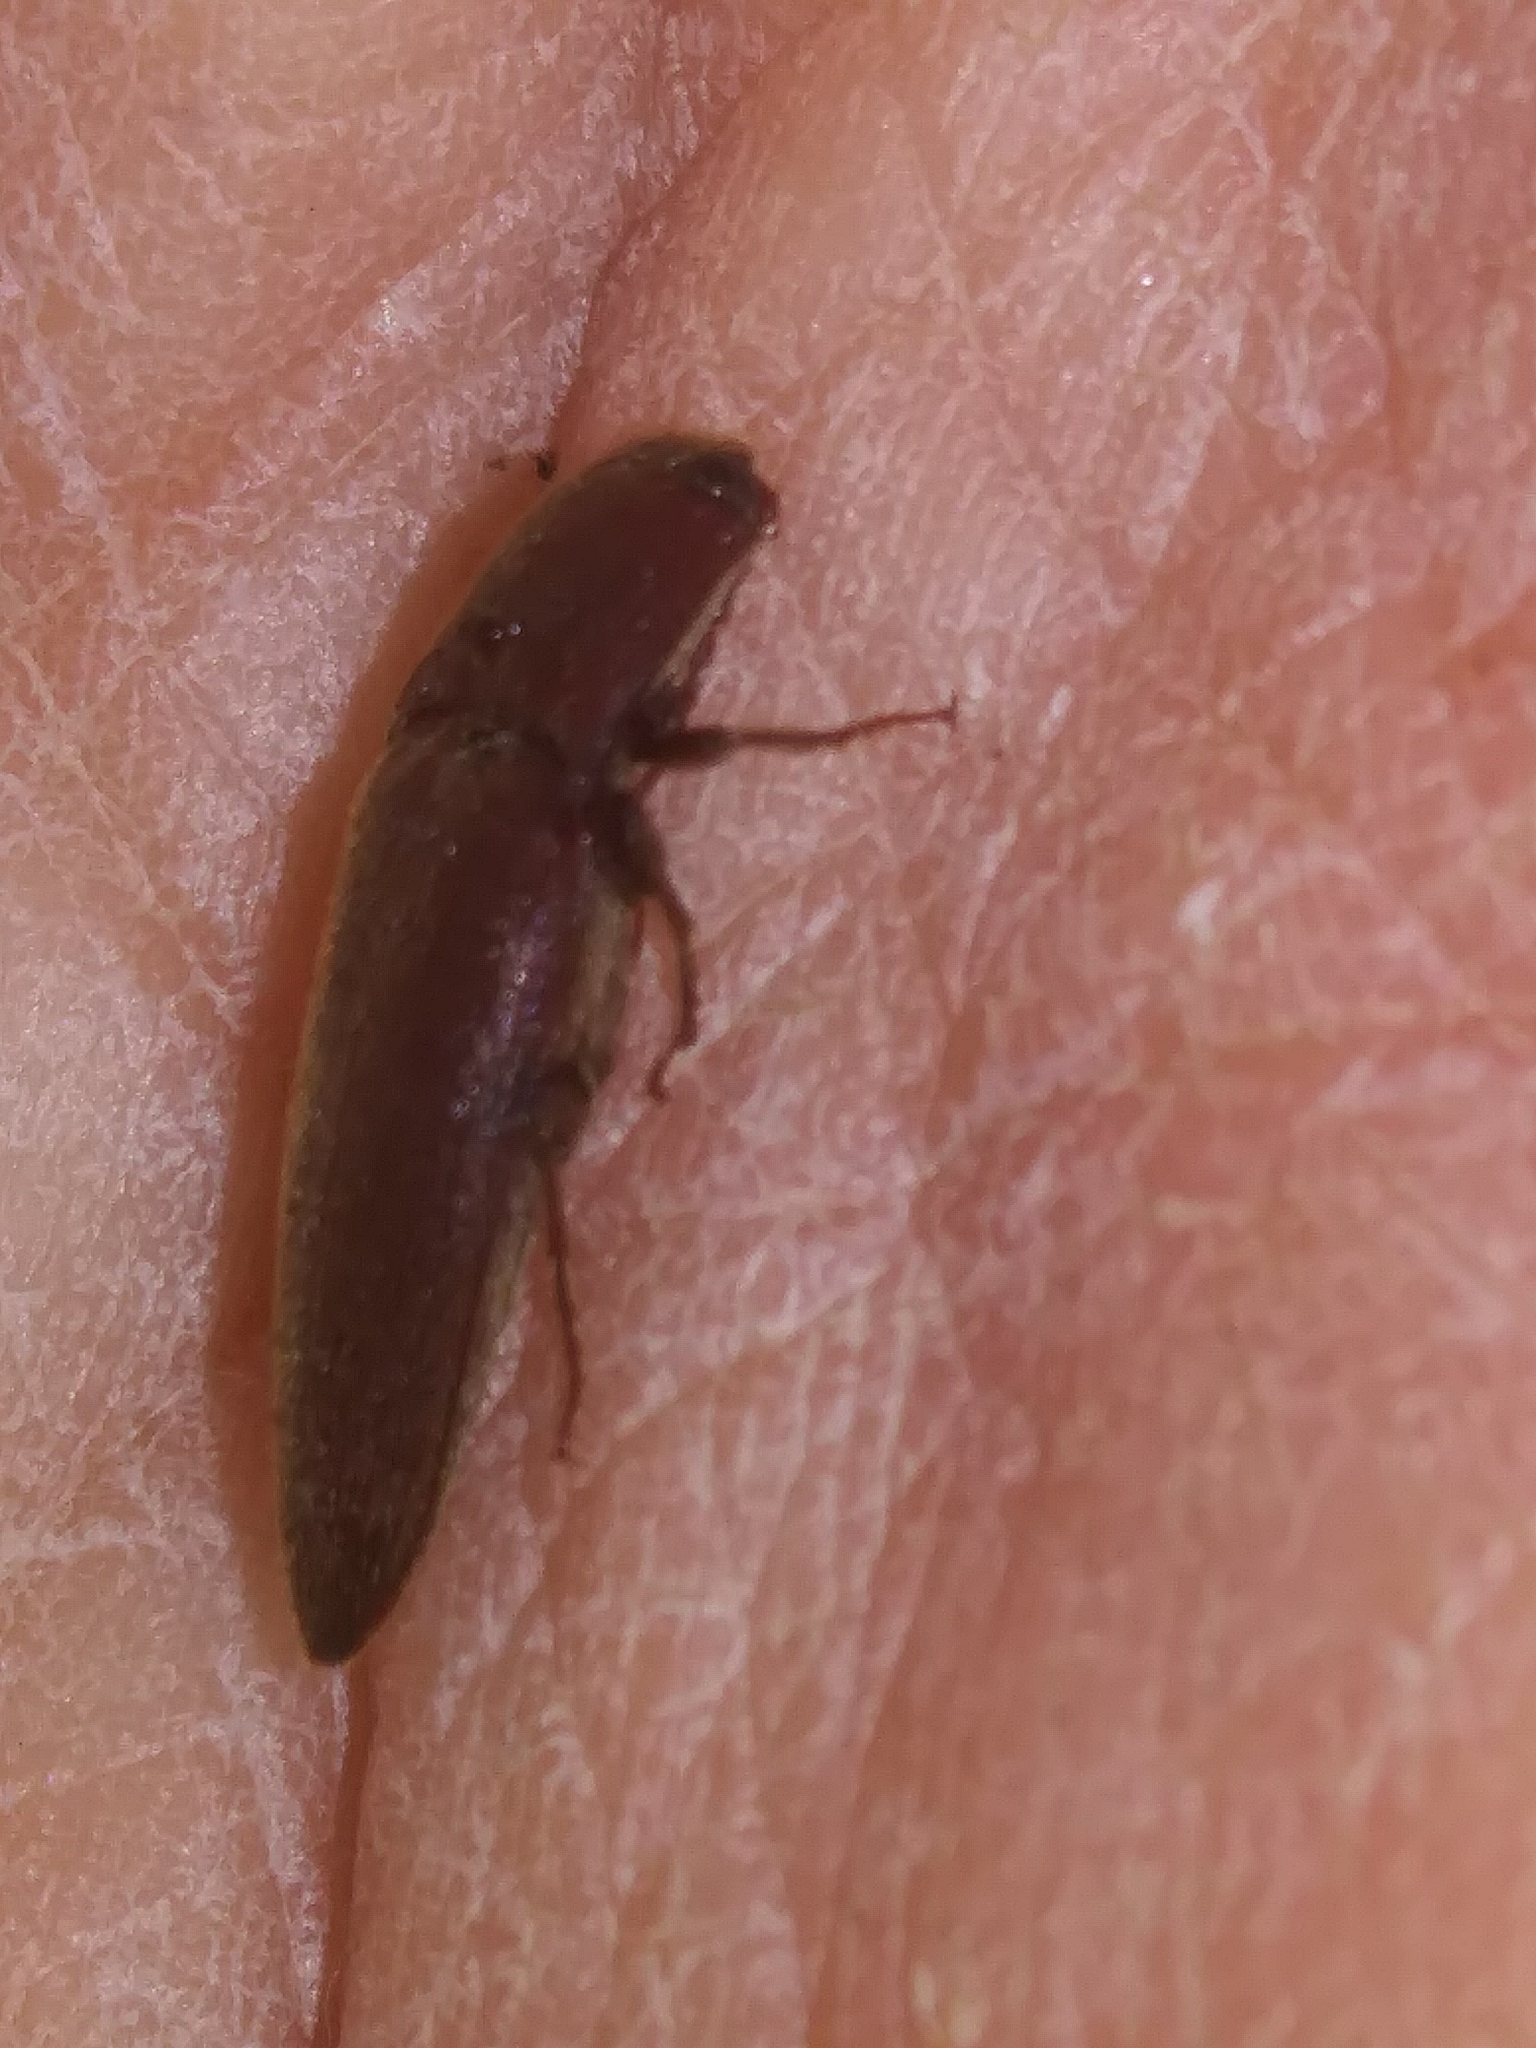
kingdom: Animalia
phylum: Arthropoda
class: Insecta
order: Coleoptera
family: Elateridae
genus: Melanotus
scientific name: Melanotus
